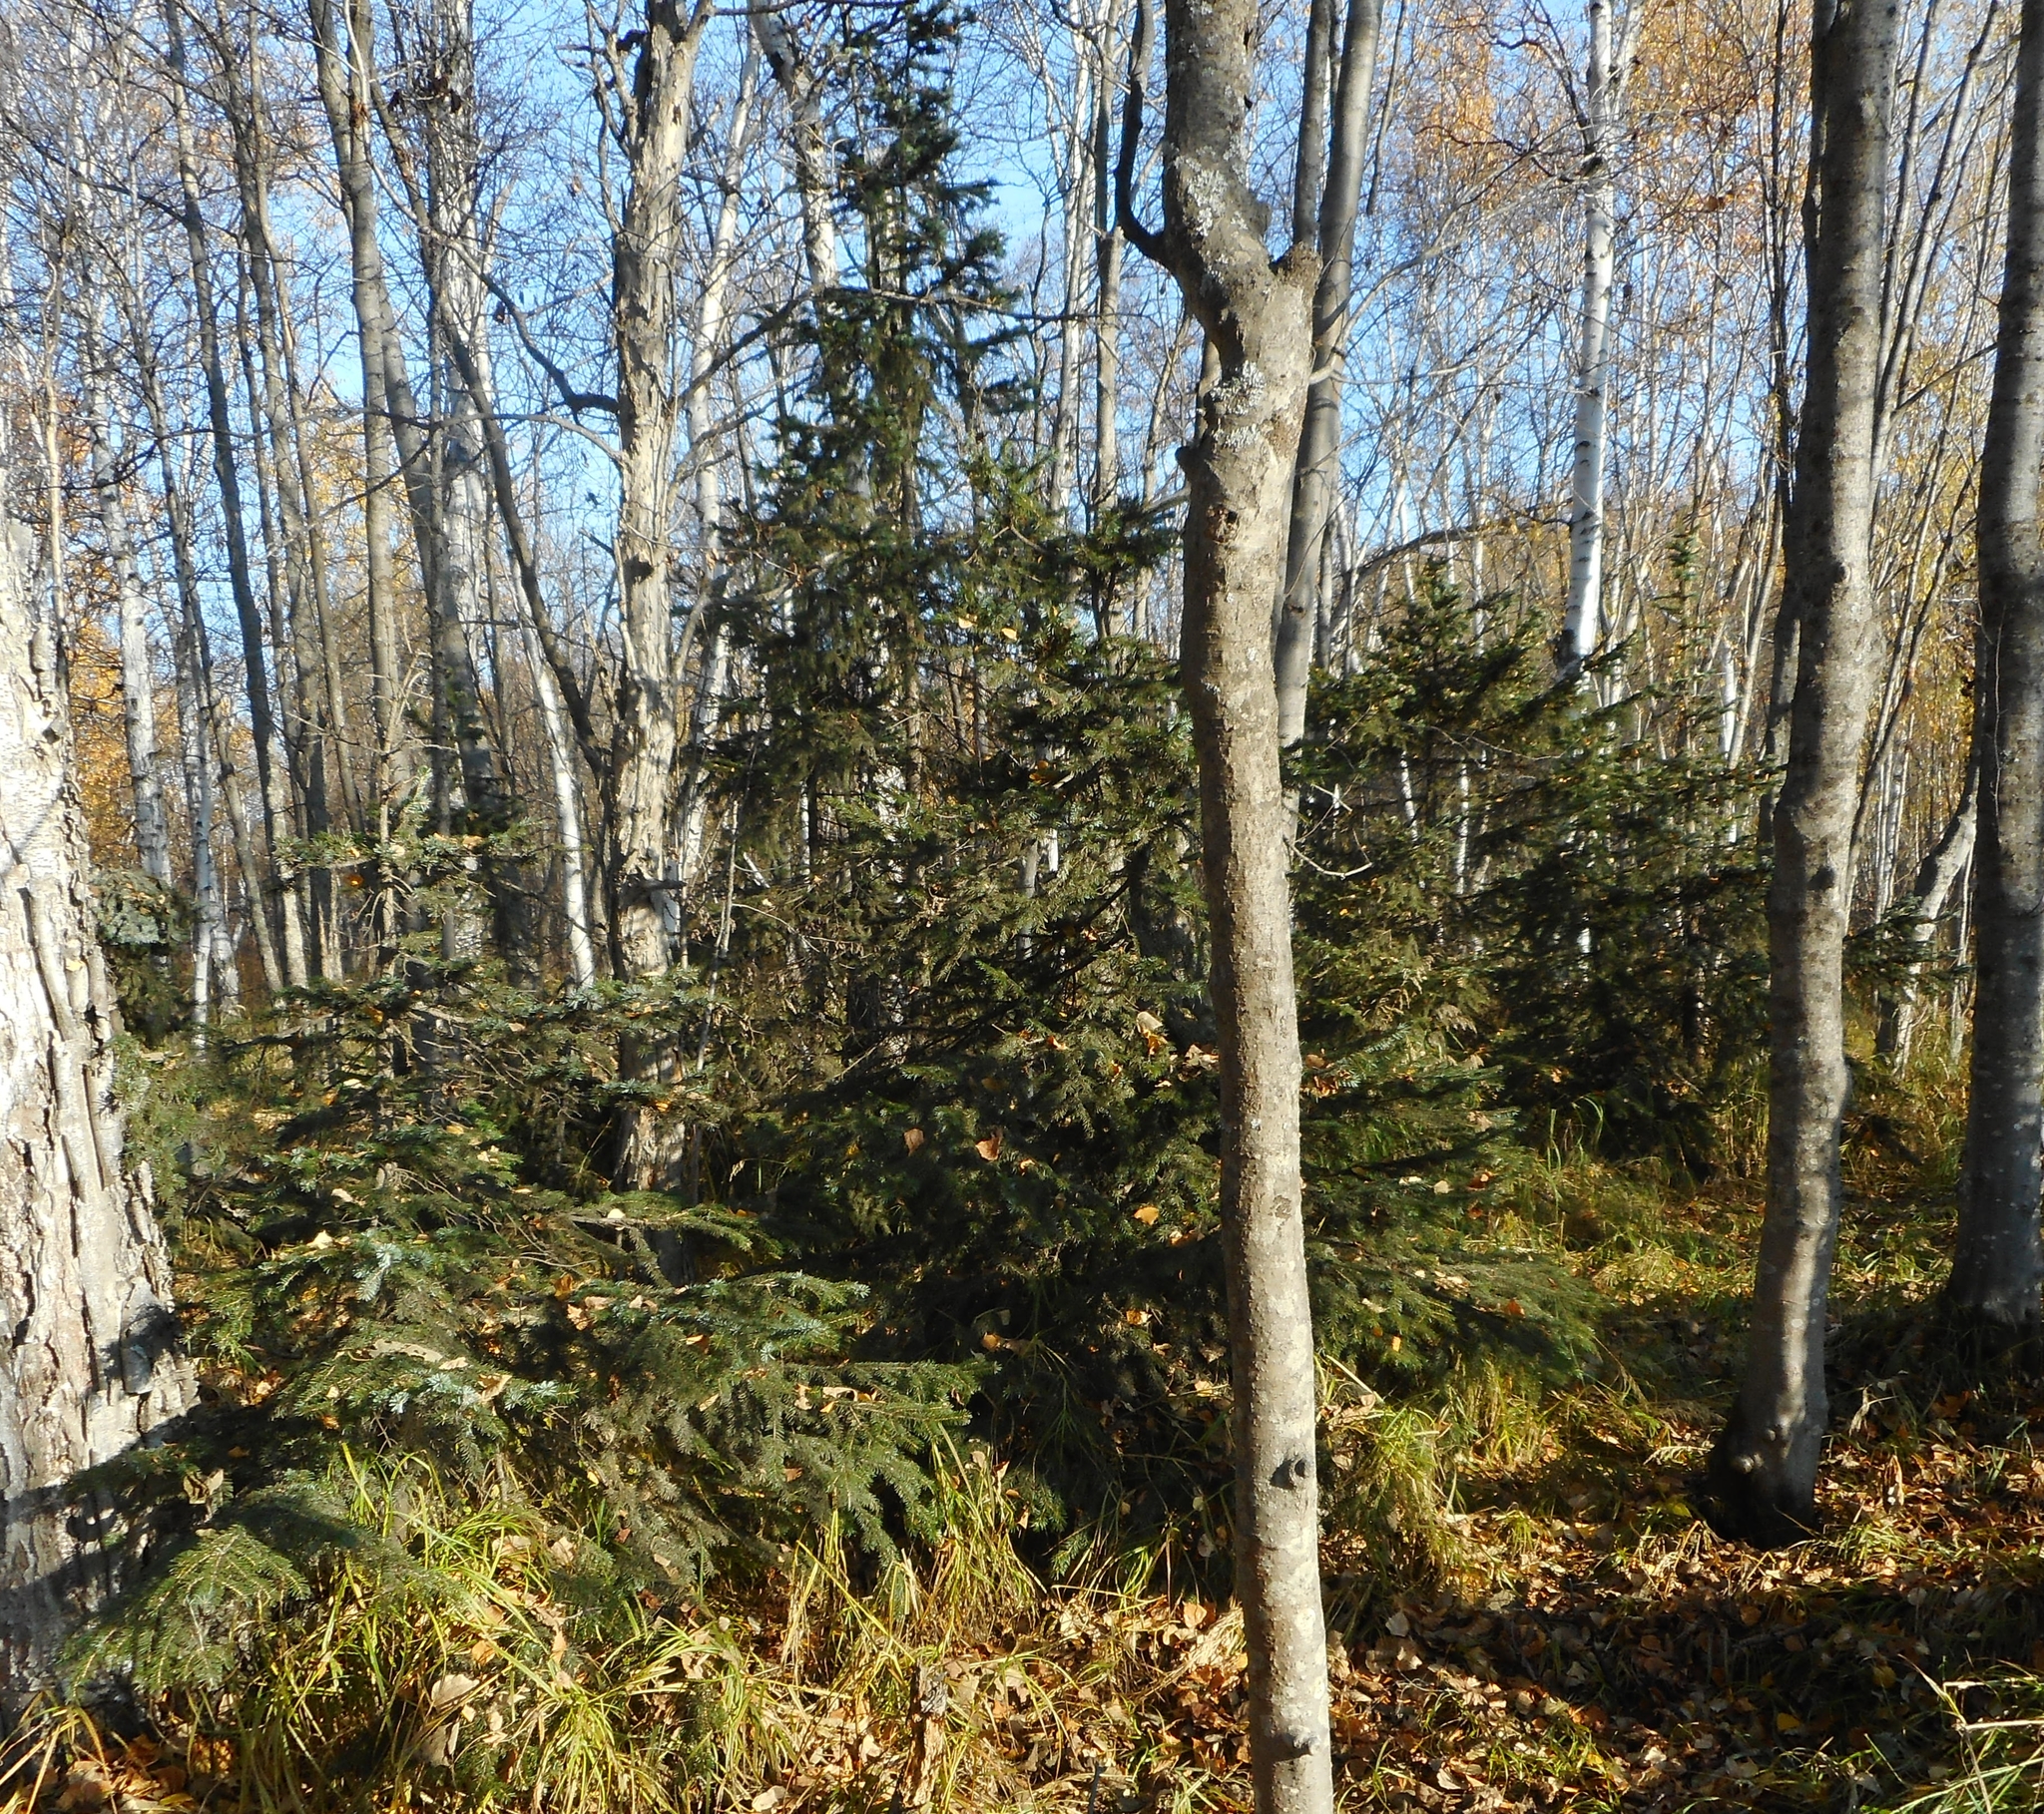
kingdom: Plantae
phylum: Tracheophyta
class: Pinopsida
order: Pinales
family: Pinaceae
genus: Picea
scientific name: Picea jezoensis
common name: Yeddo spruce
